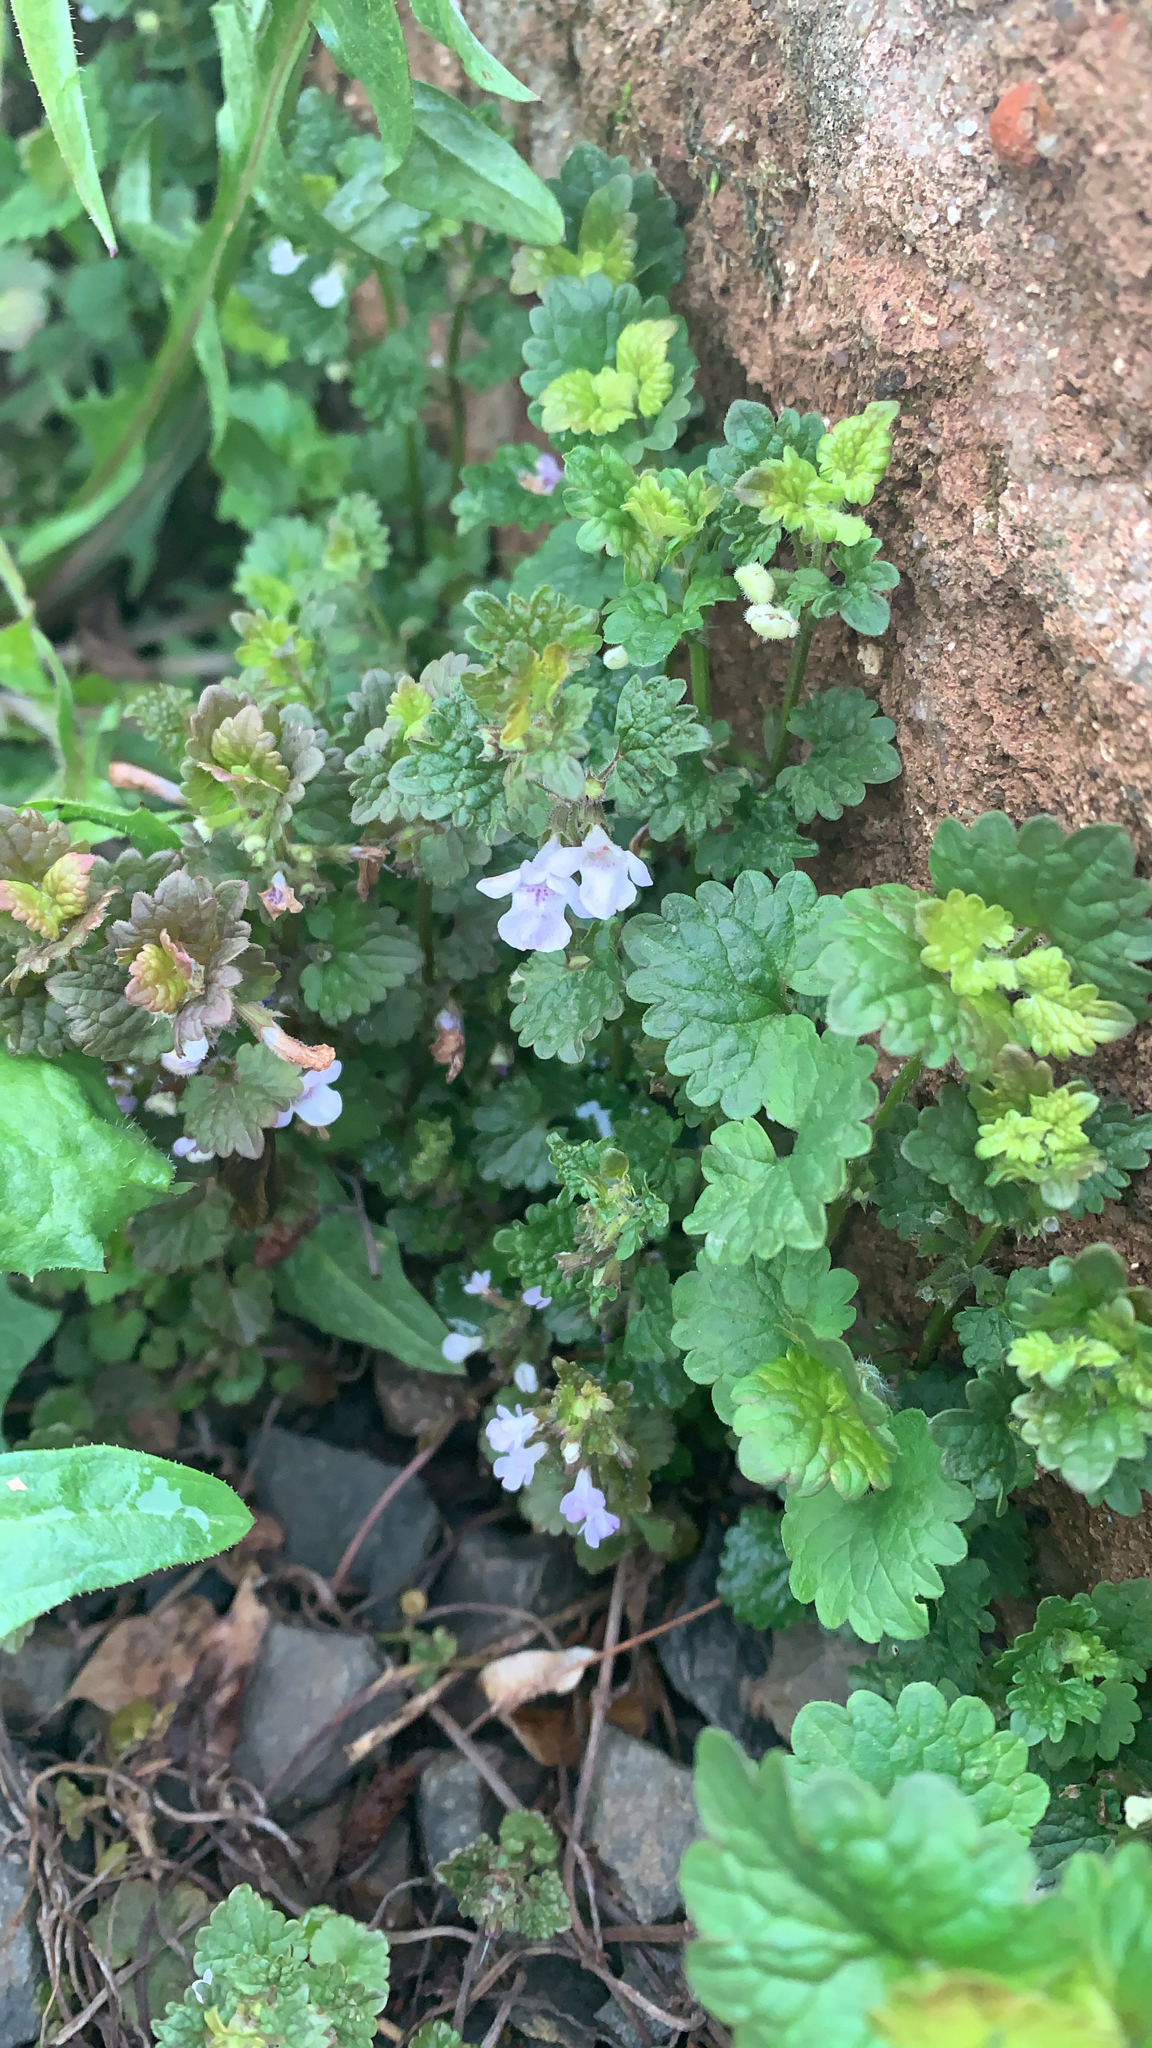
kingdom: Plantae
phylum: Tracheophyta
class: Magnoliopsida
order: Lamiales
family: Lamiaceae
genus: Glechoma
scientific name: Glechoma hederacea
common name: Ground ivy
